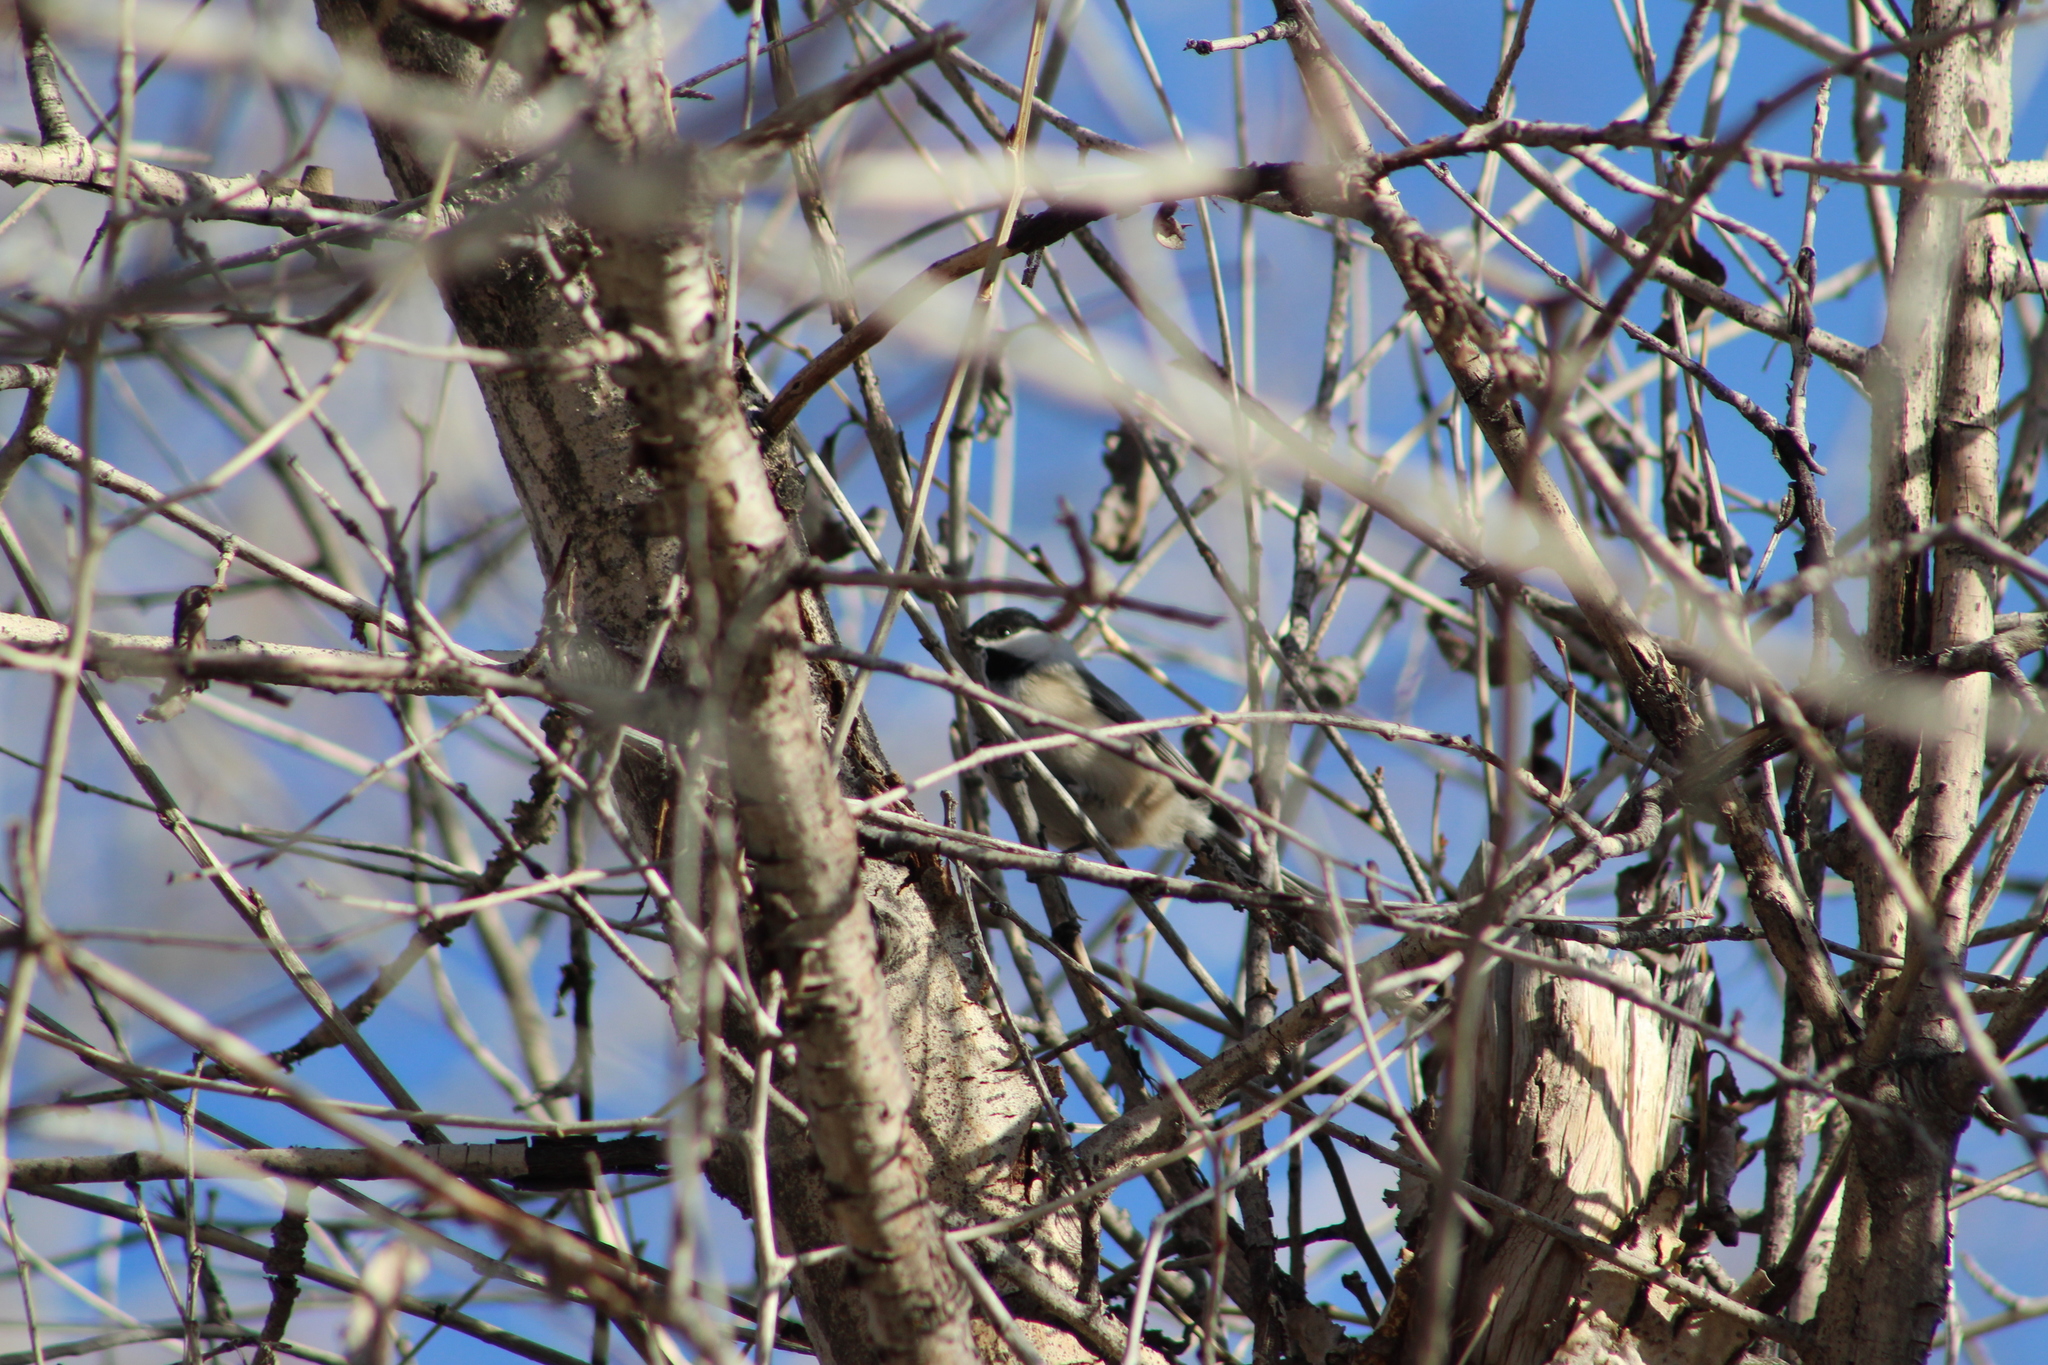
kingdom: Animalia
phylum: Chordata
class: Aves
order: Passeriformes
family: Paridae
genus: Poecile
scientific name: Poecile atricapillus
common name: Black-capped chickadee
